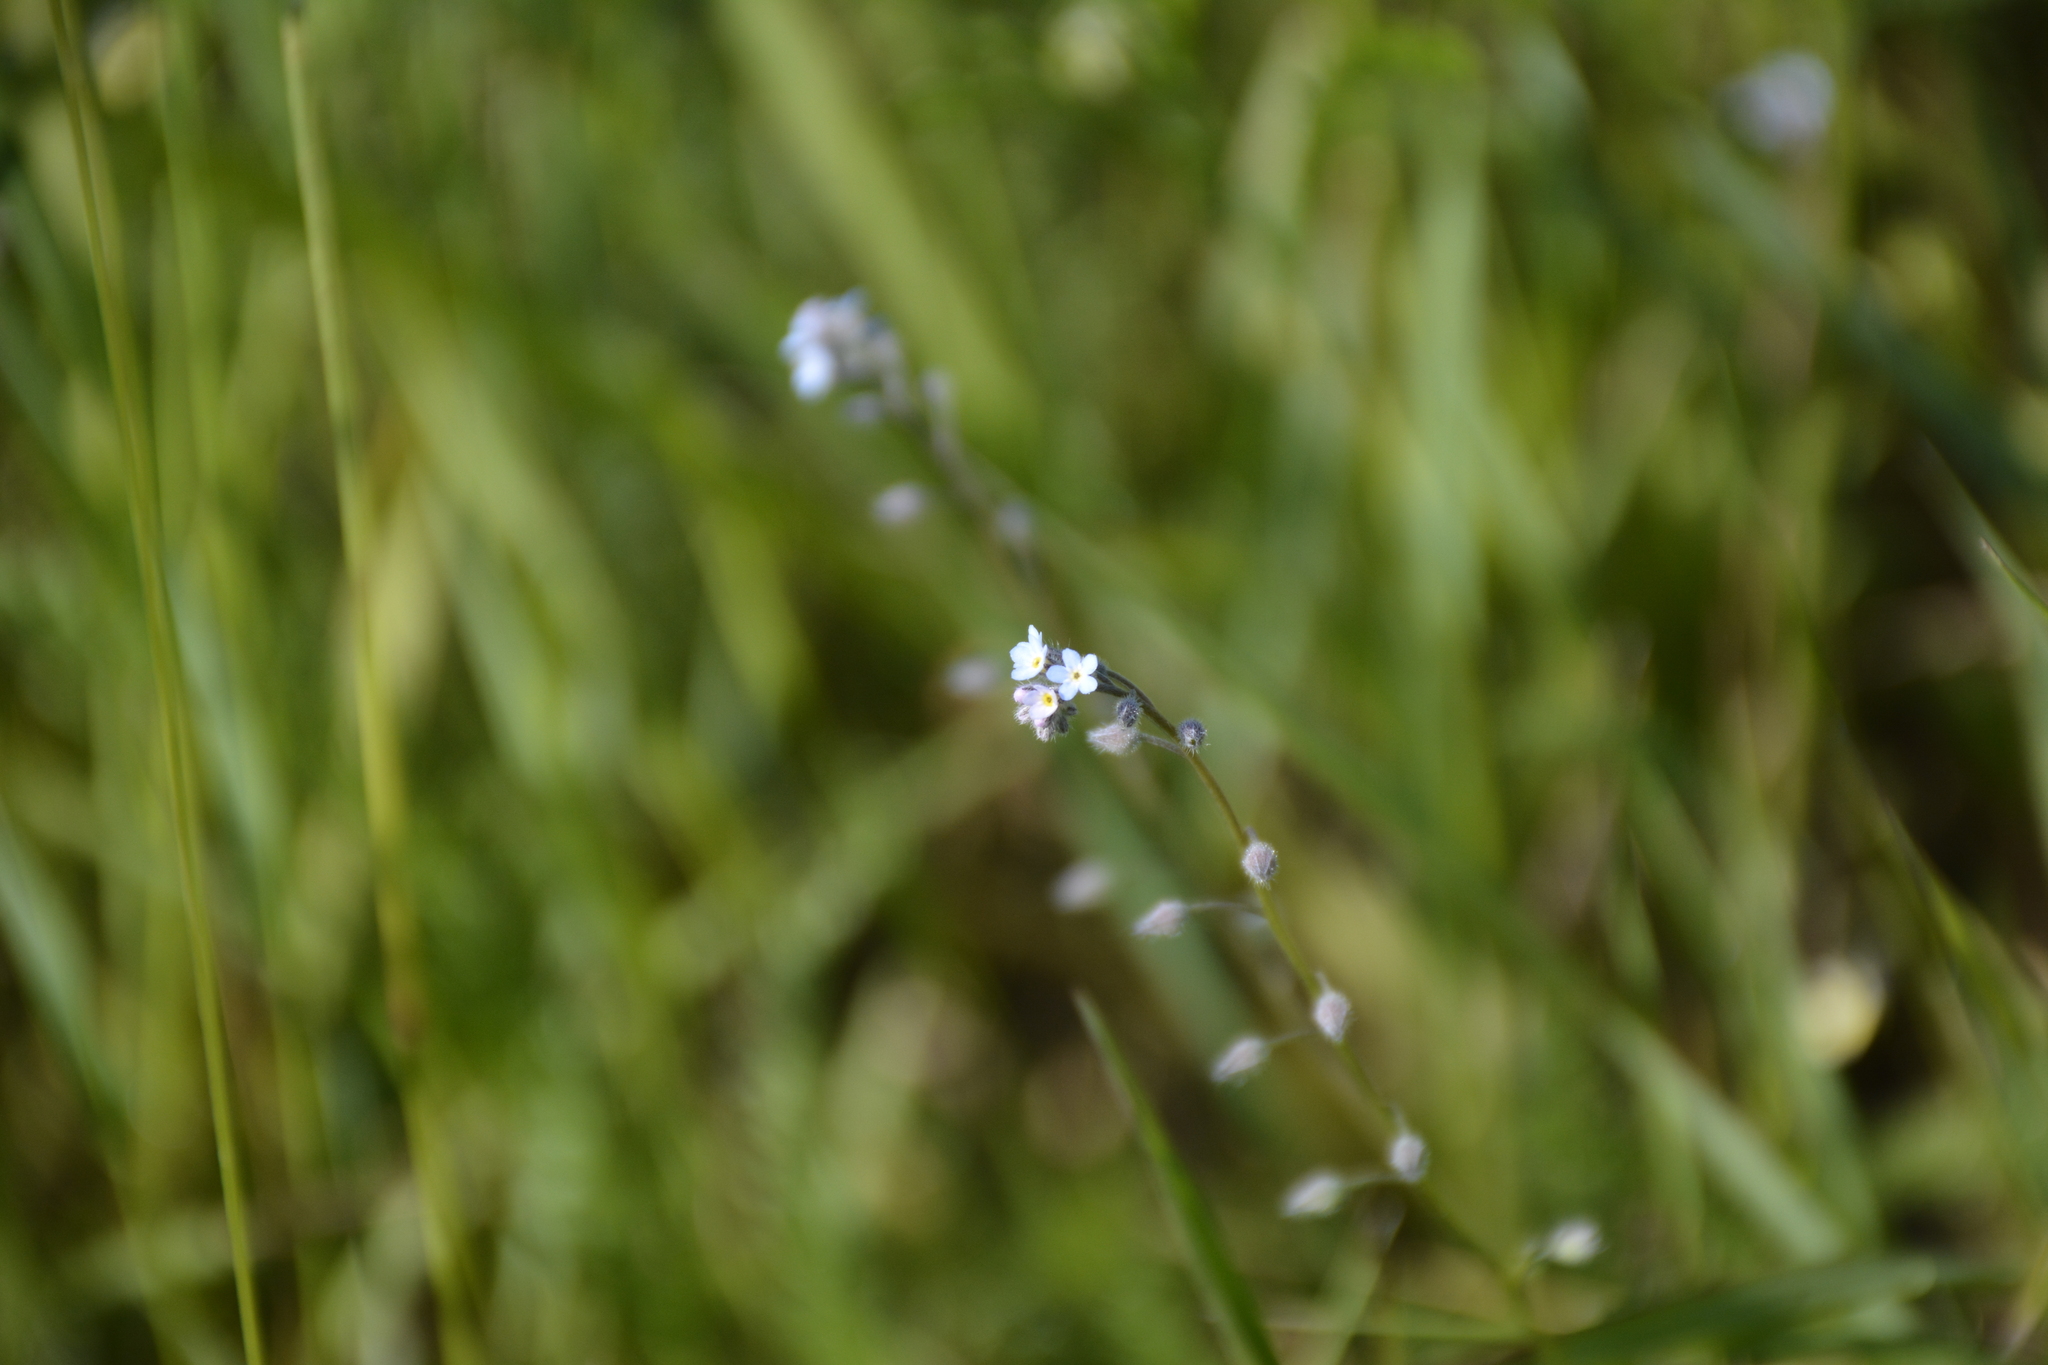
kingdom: Plantae
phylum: Tracheophyta
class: Magnoliopsida
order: Boraginales
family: Boraginaceae
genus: Myosotis
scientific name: Myosotis arvensis
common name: Field forget-me-not
